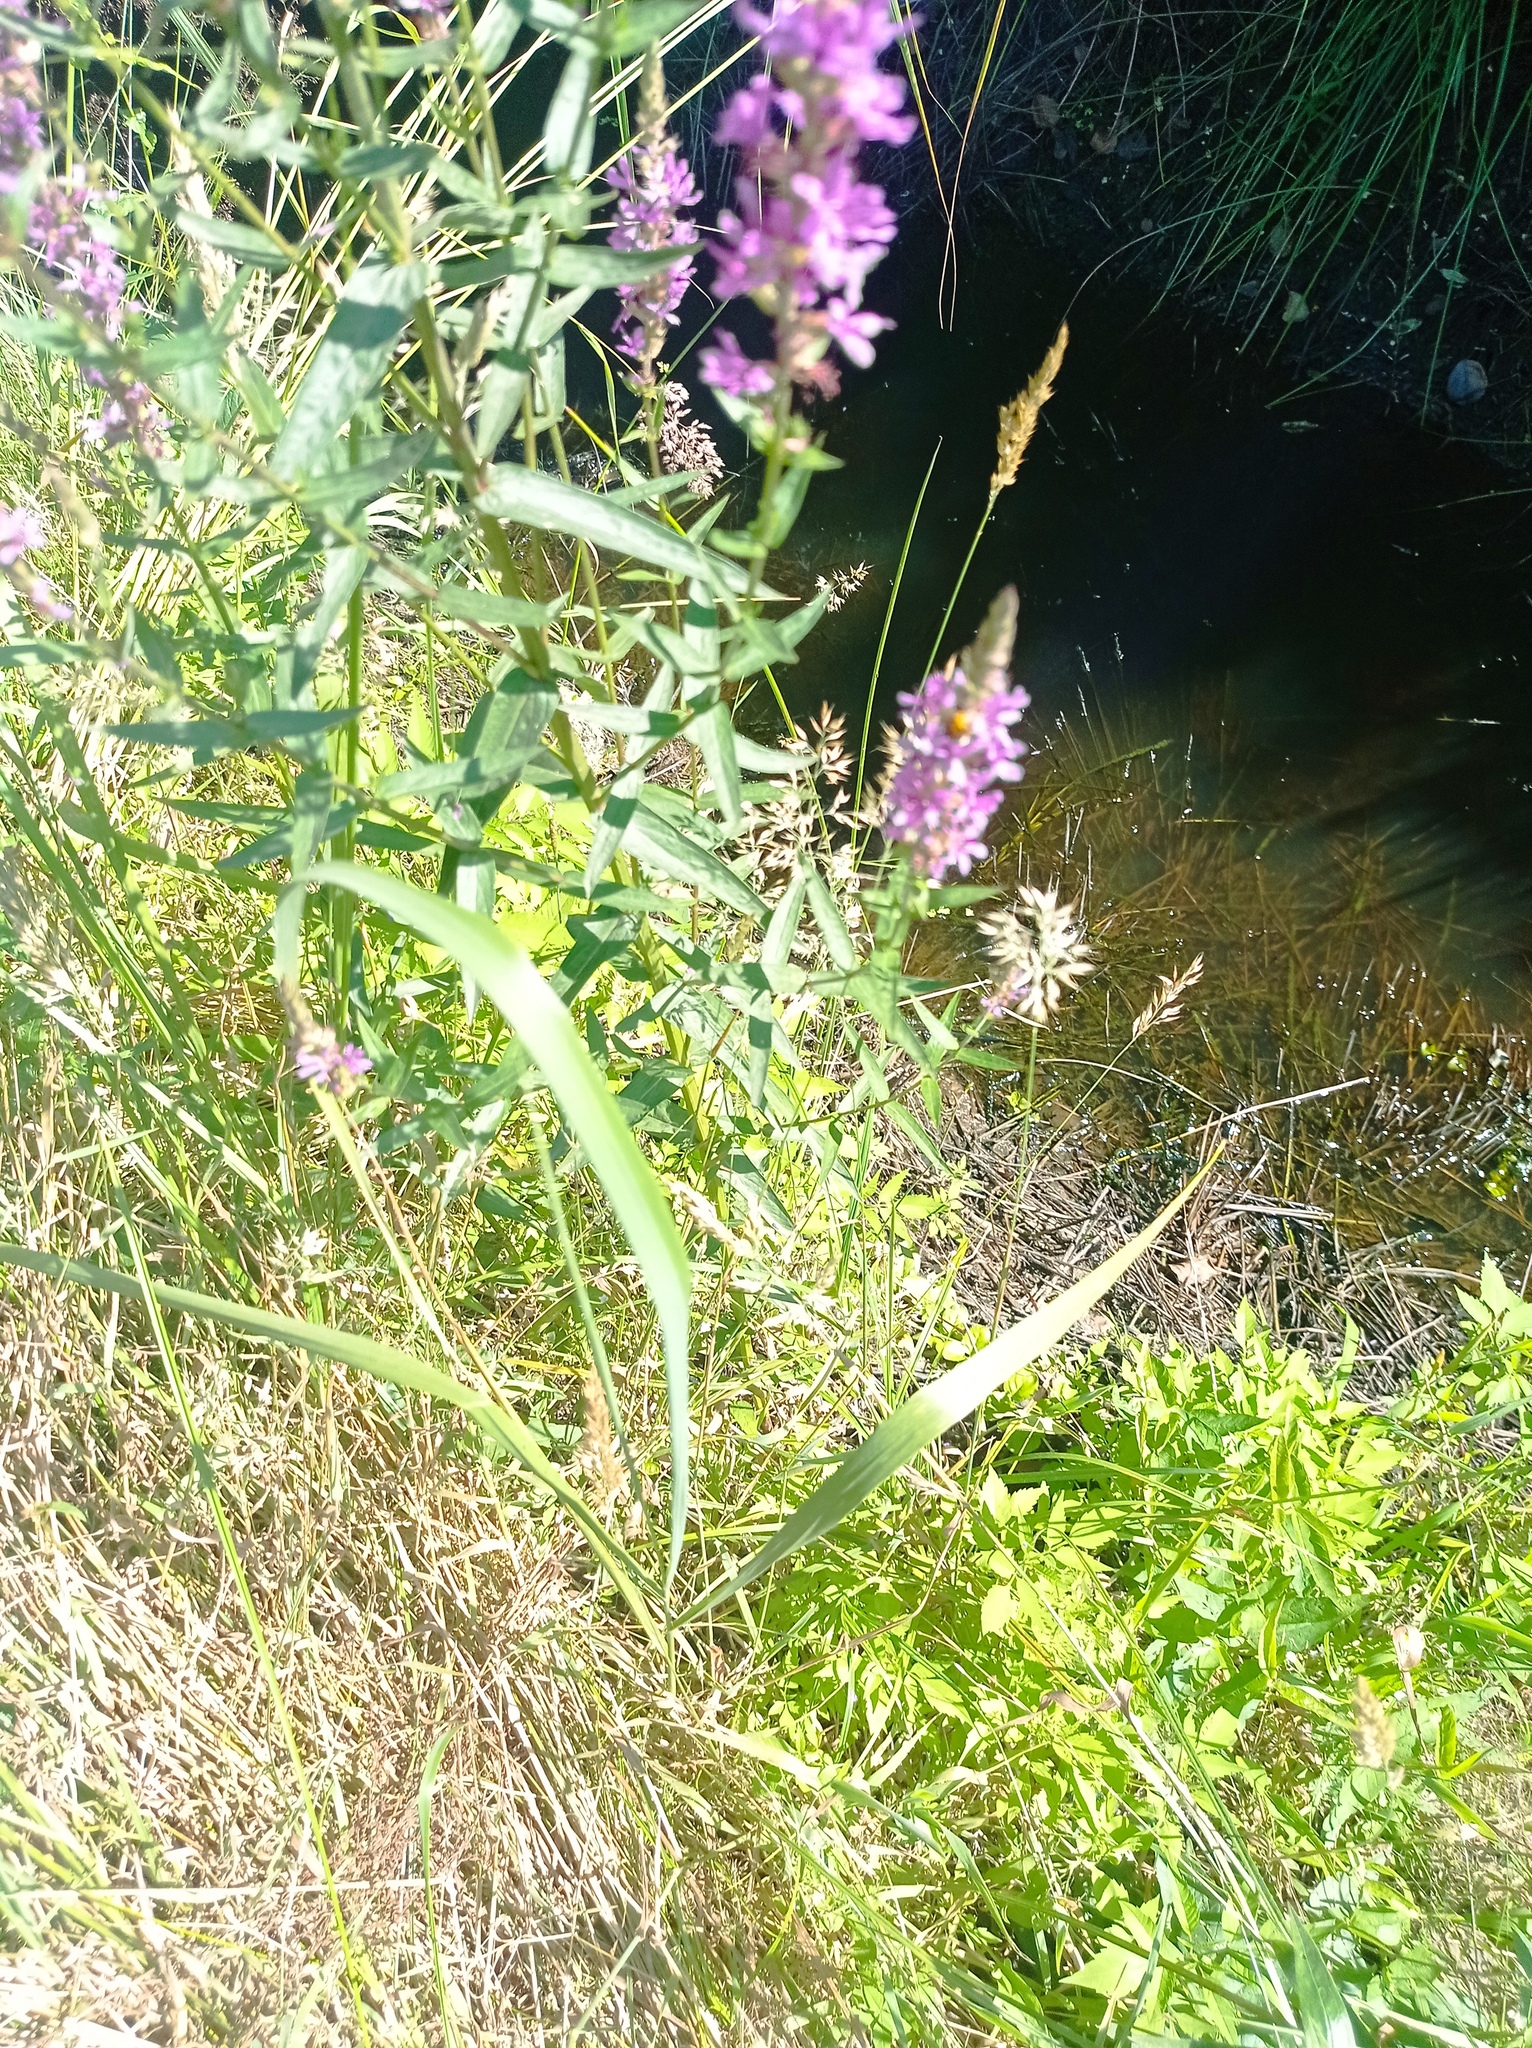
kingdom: Plantae
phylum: Tracheophyta
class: Magnoliopsida
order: Myrtales
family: Lythraceae
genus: Lythrum
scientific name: Lythrum salicaria
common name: Purple loosestrife
